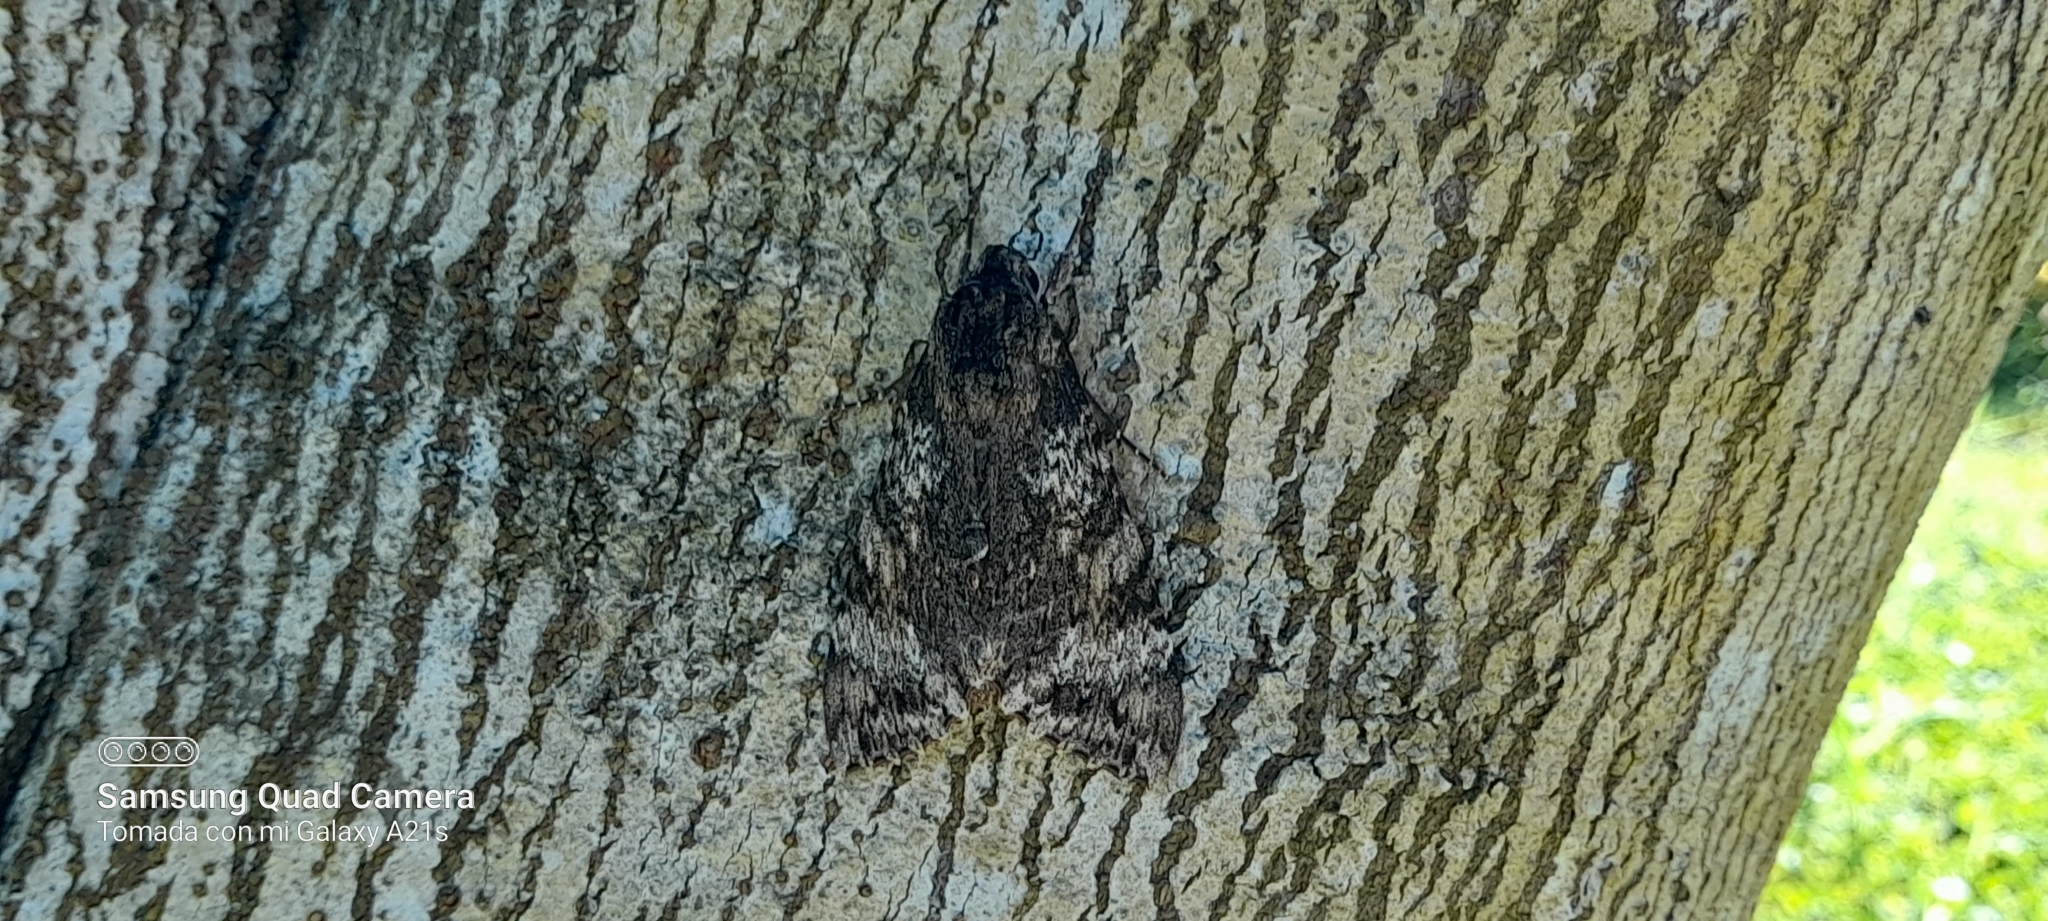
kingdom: Animalia
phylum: Arthropoda
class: Insecta
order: Lepidoptera
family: Sphingidae
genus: Isognathus
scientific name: Isognathus rimosa
